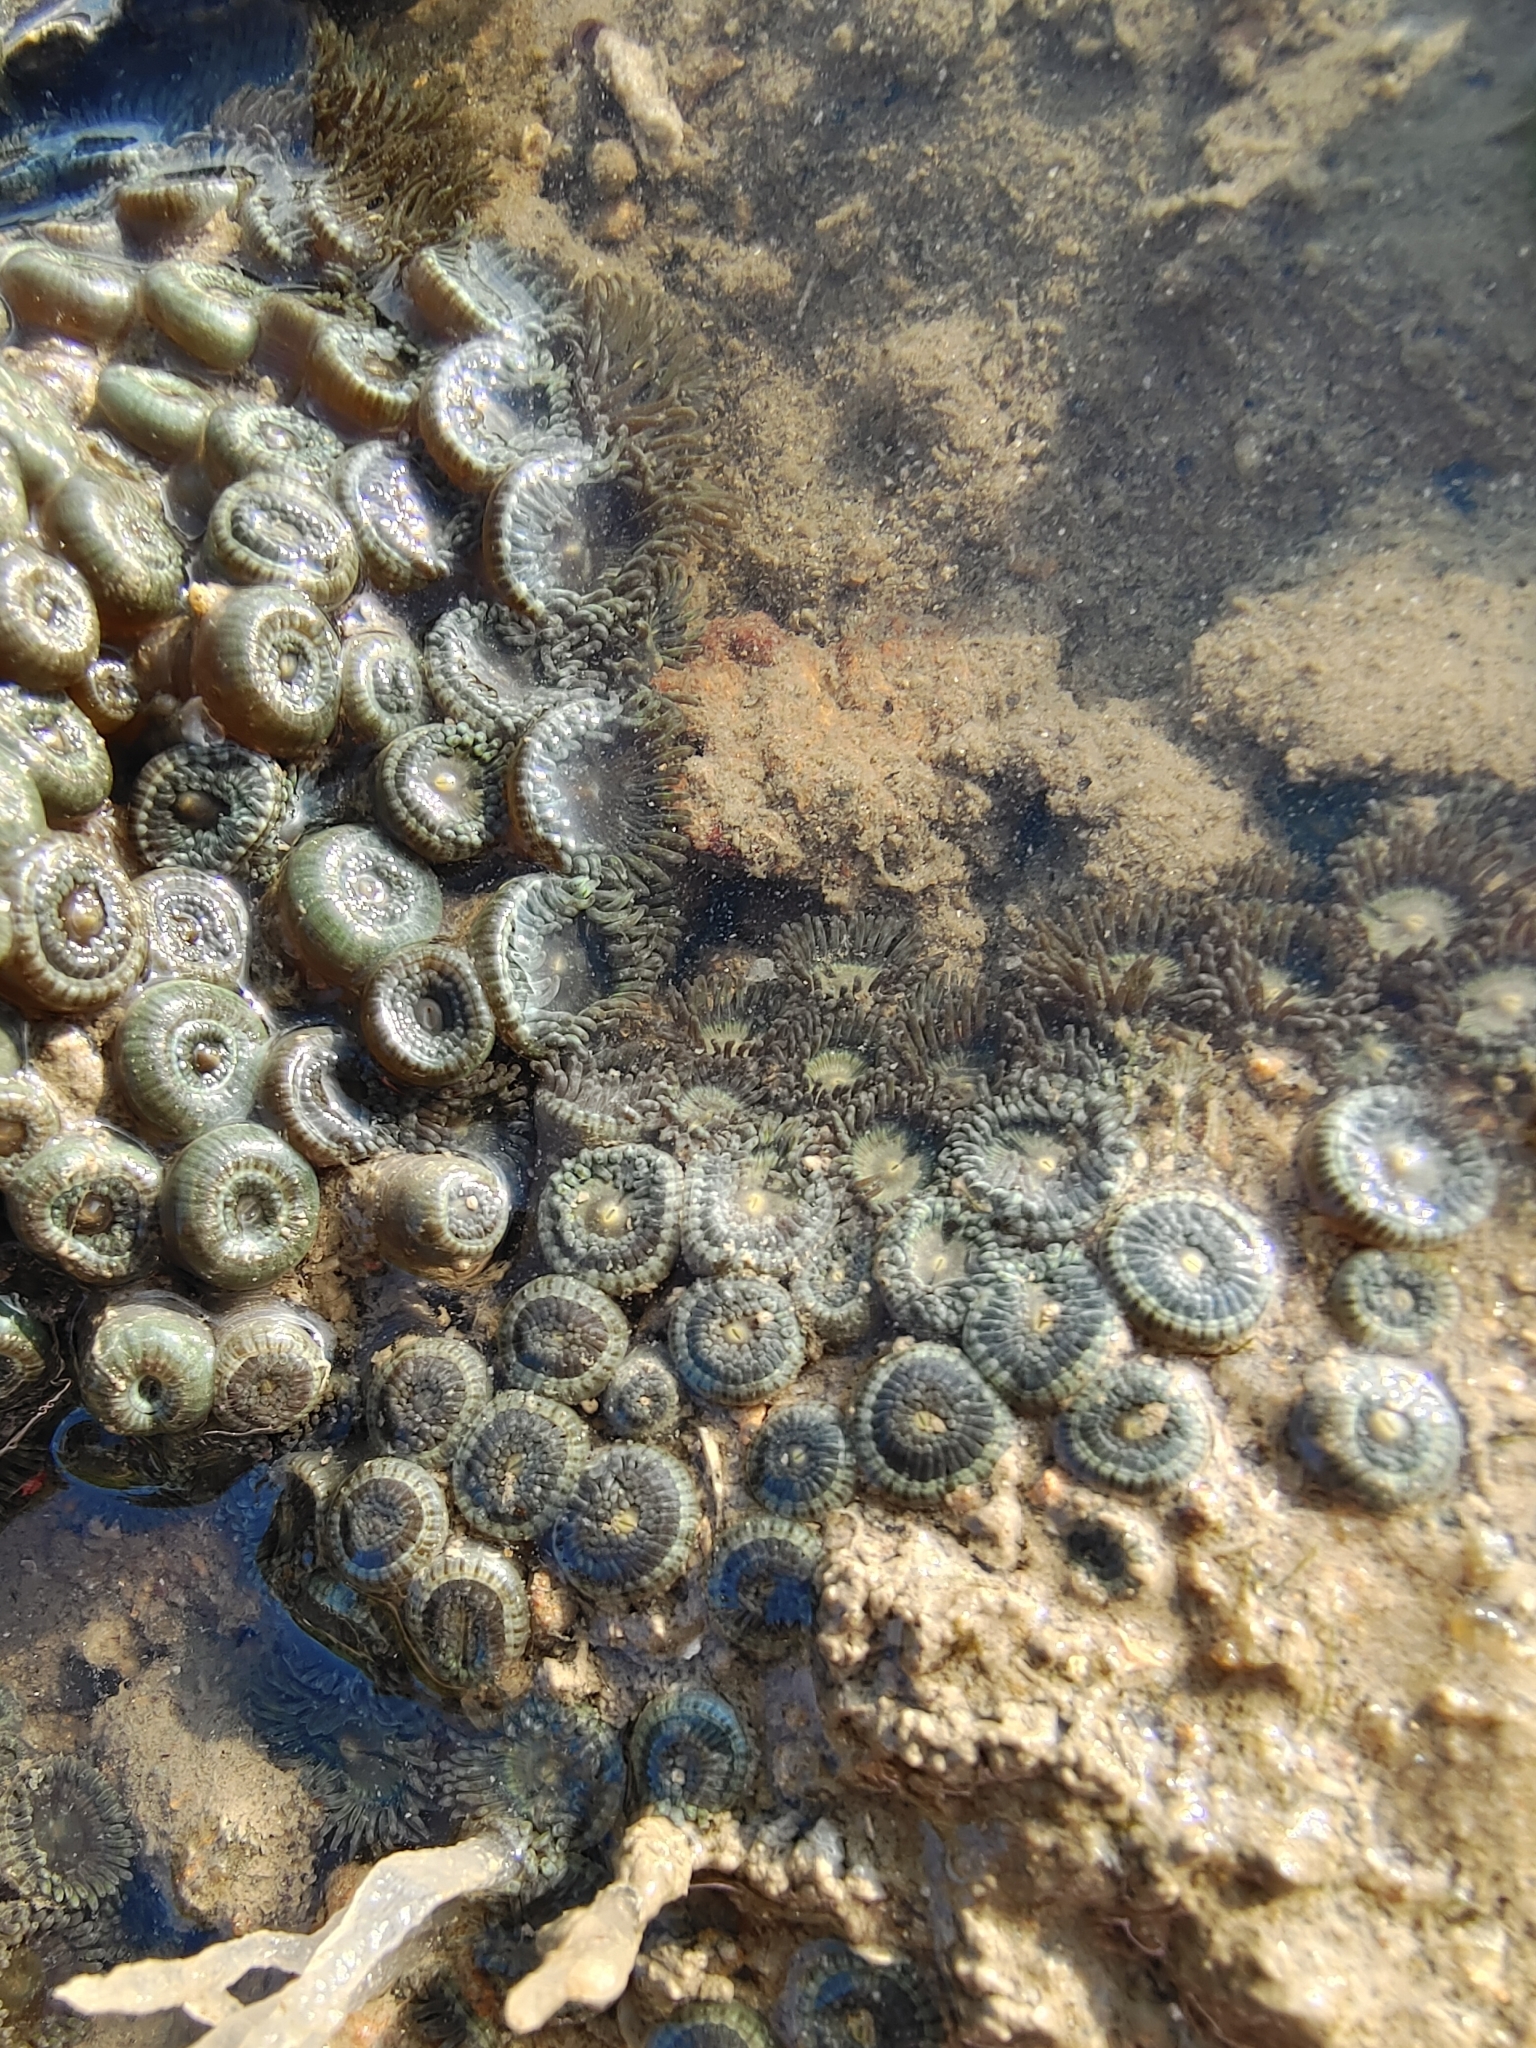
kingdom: Animalia
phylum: Cnidaria
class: Anthozoa
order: Zoantharia
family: Zoanthidae
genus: Zoanthus
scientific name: Zoanthus vietnamensis
